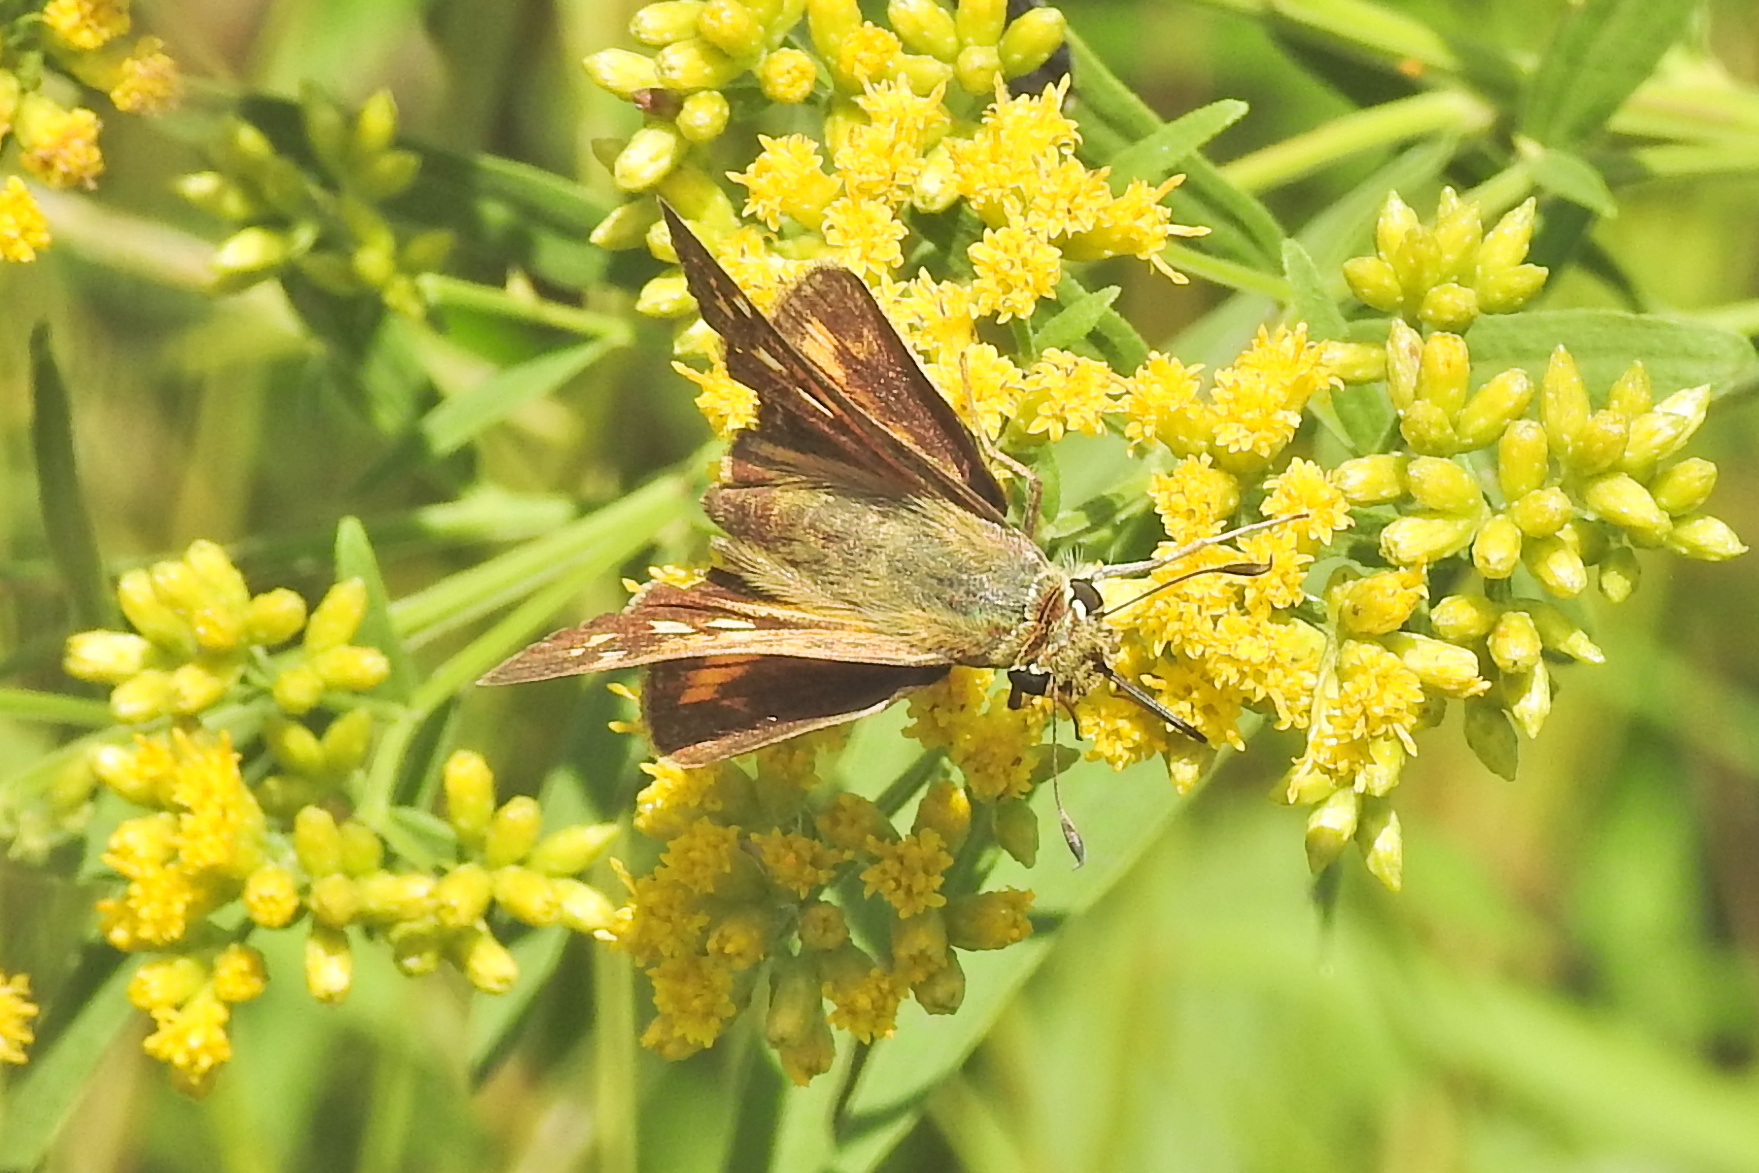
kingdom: Animalia
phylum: Arthropoda
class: Insecta
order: Lepidoptera
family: Hesperiidae
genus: Atalopedes
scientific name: Atalopedes
